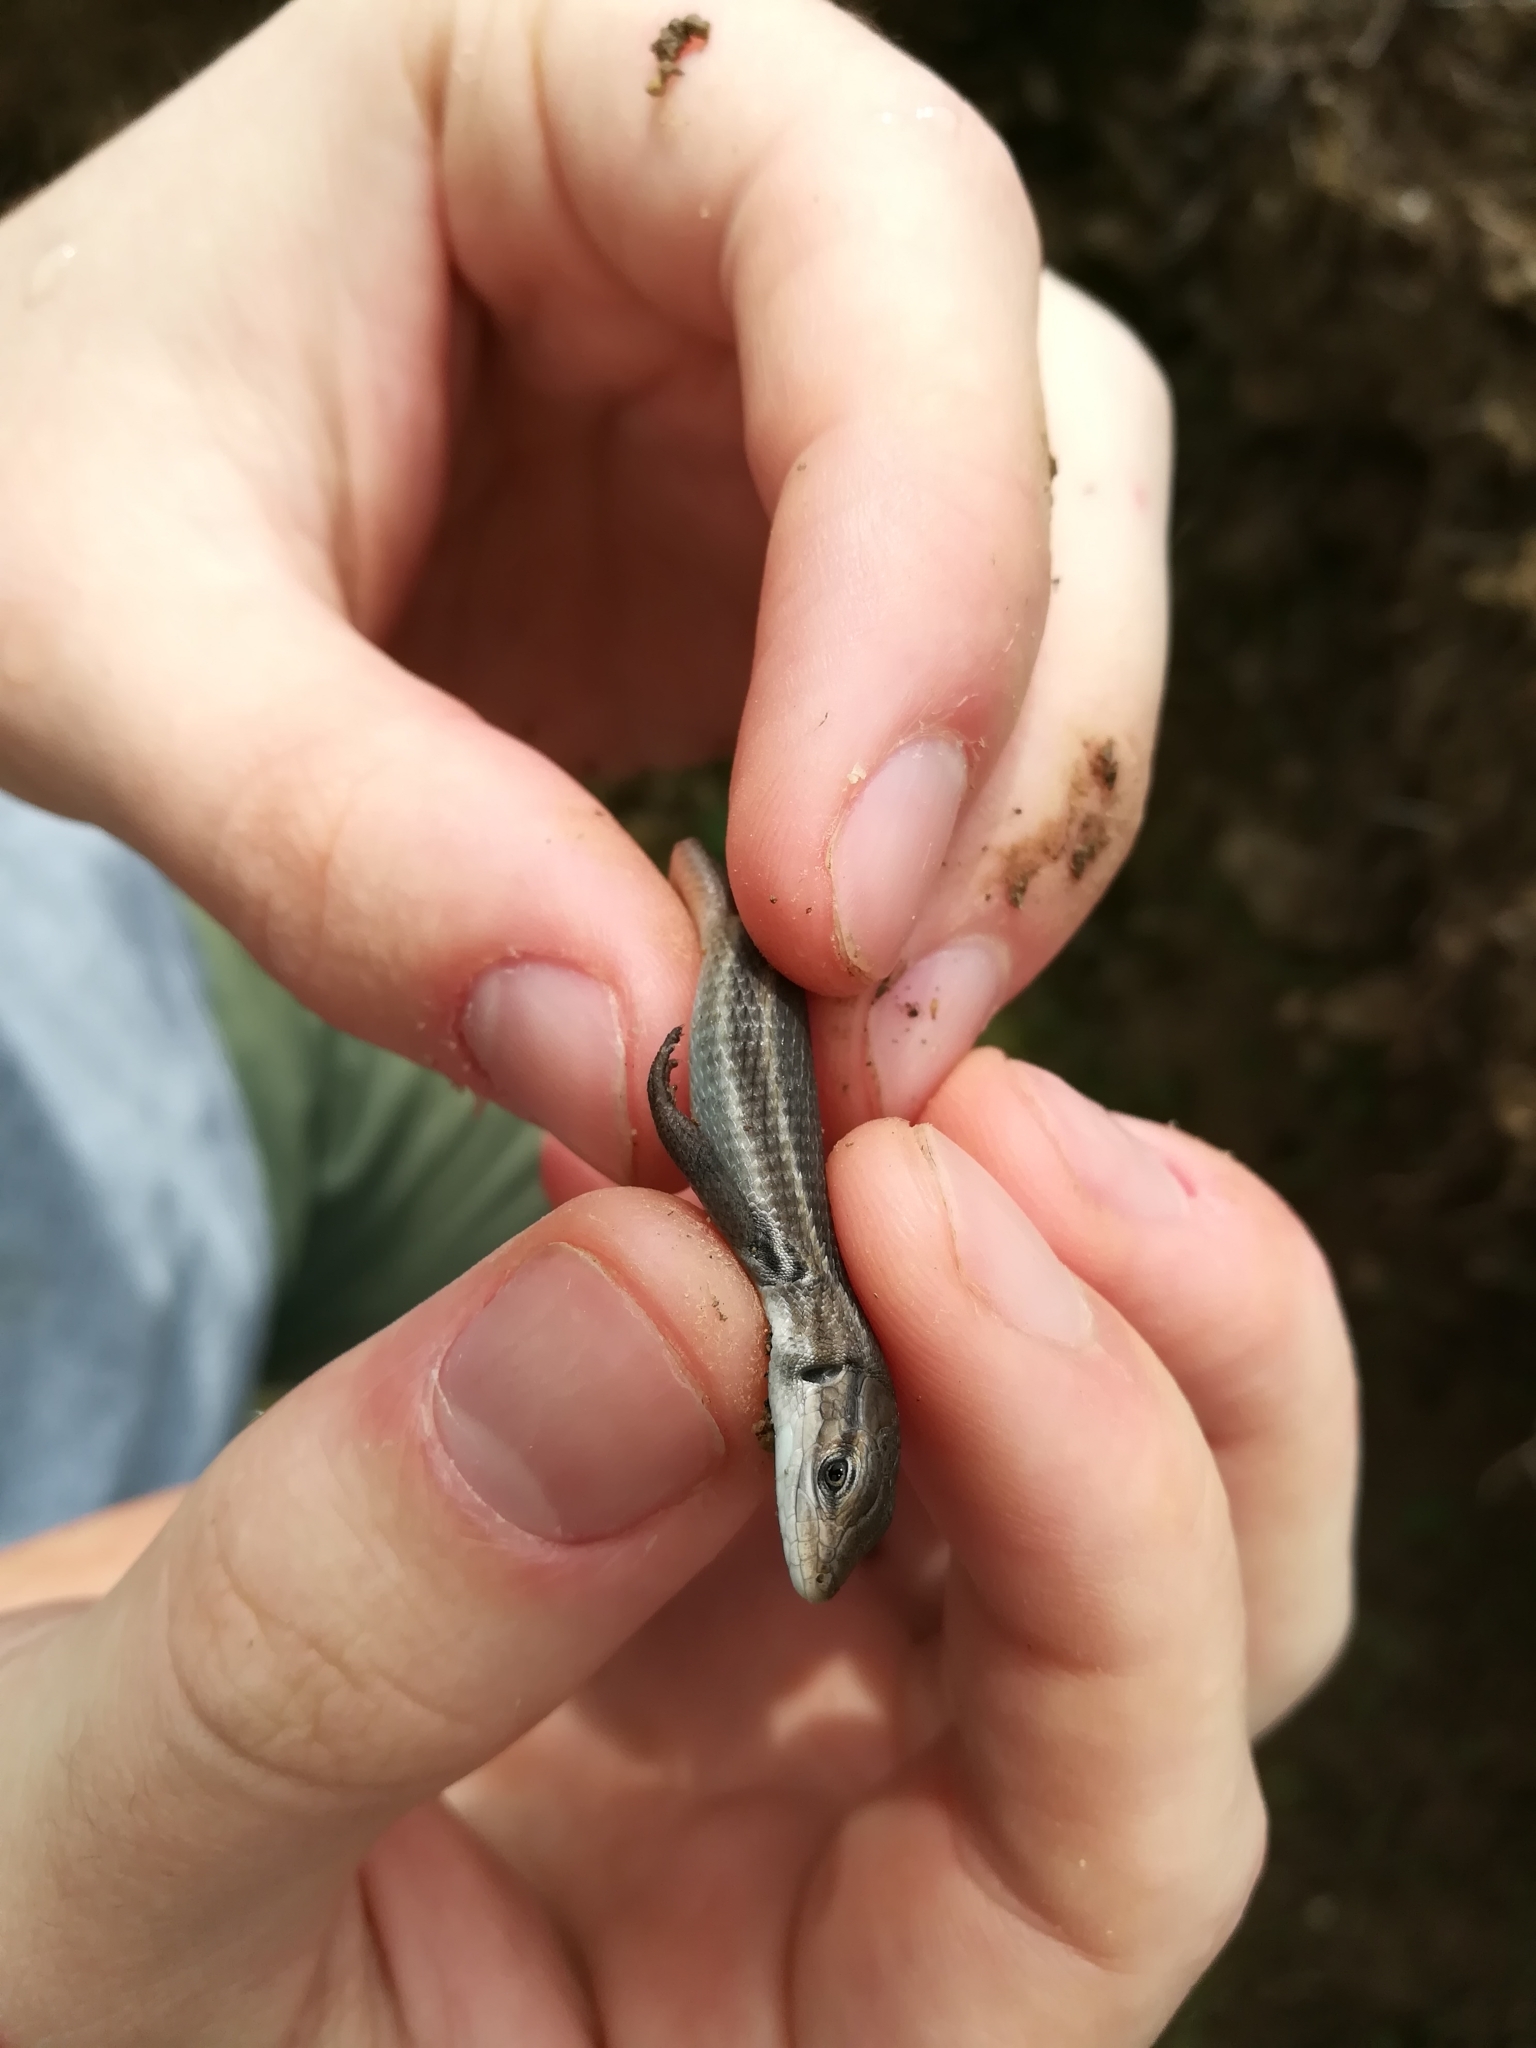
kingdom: Animalia
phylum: Chordata
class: Squamata
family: Lacertidae
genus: Psammodromus
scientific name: Psammodromus algirus
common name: Algerian psammodromus
